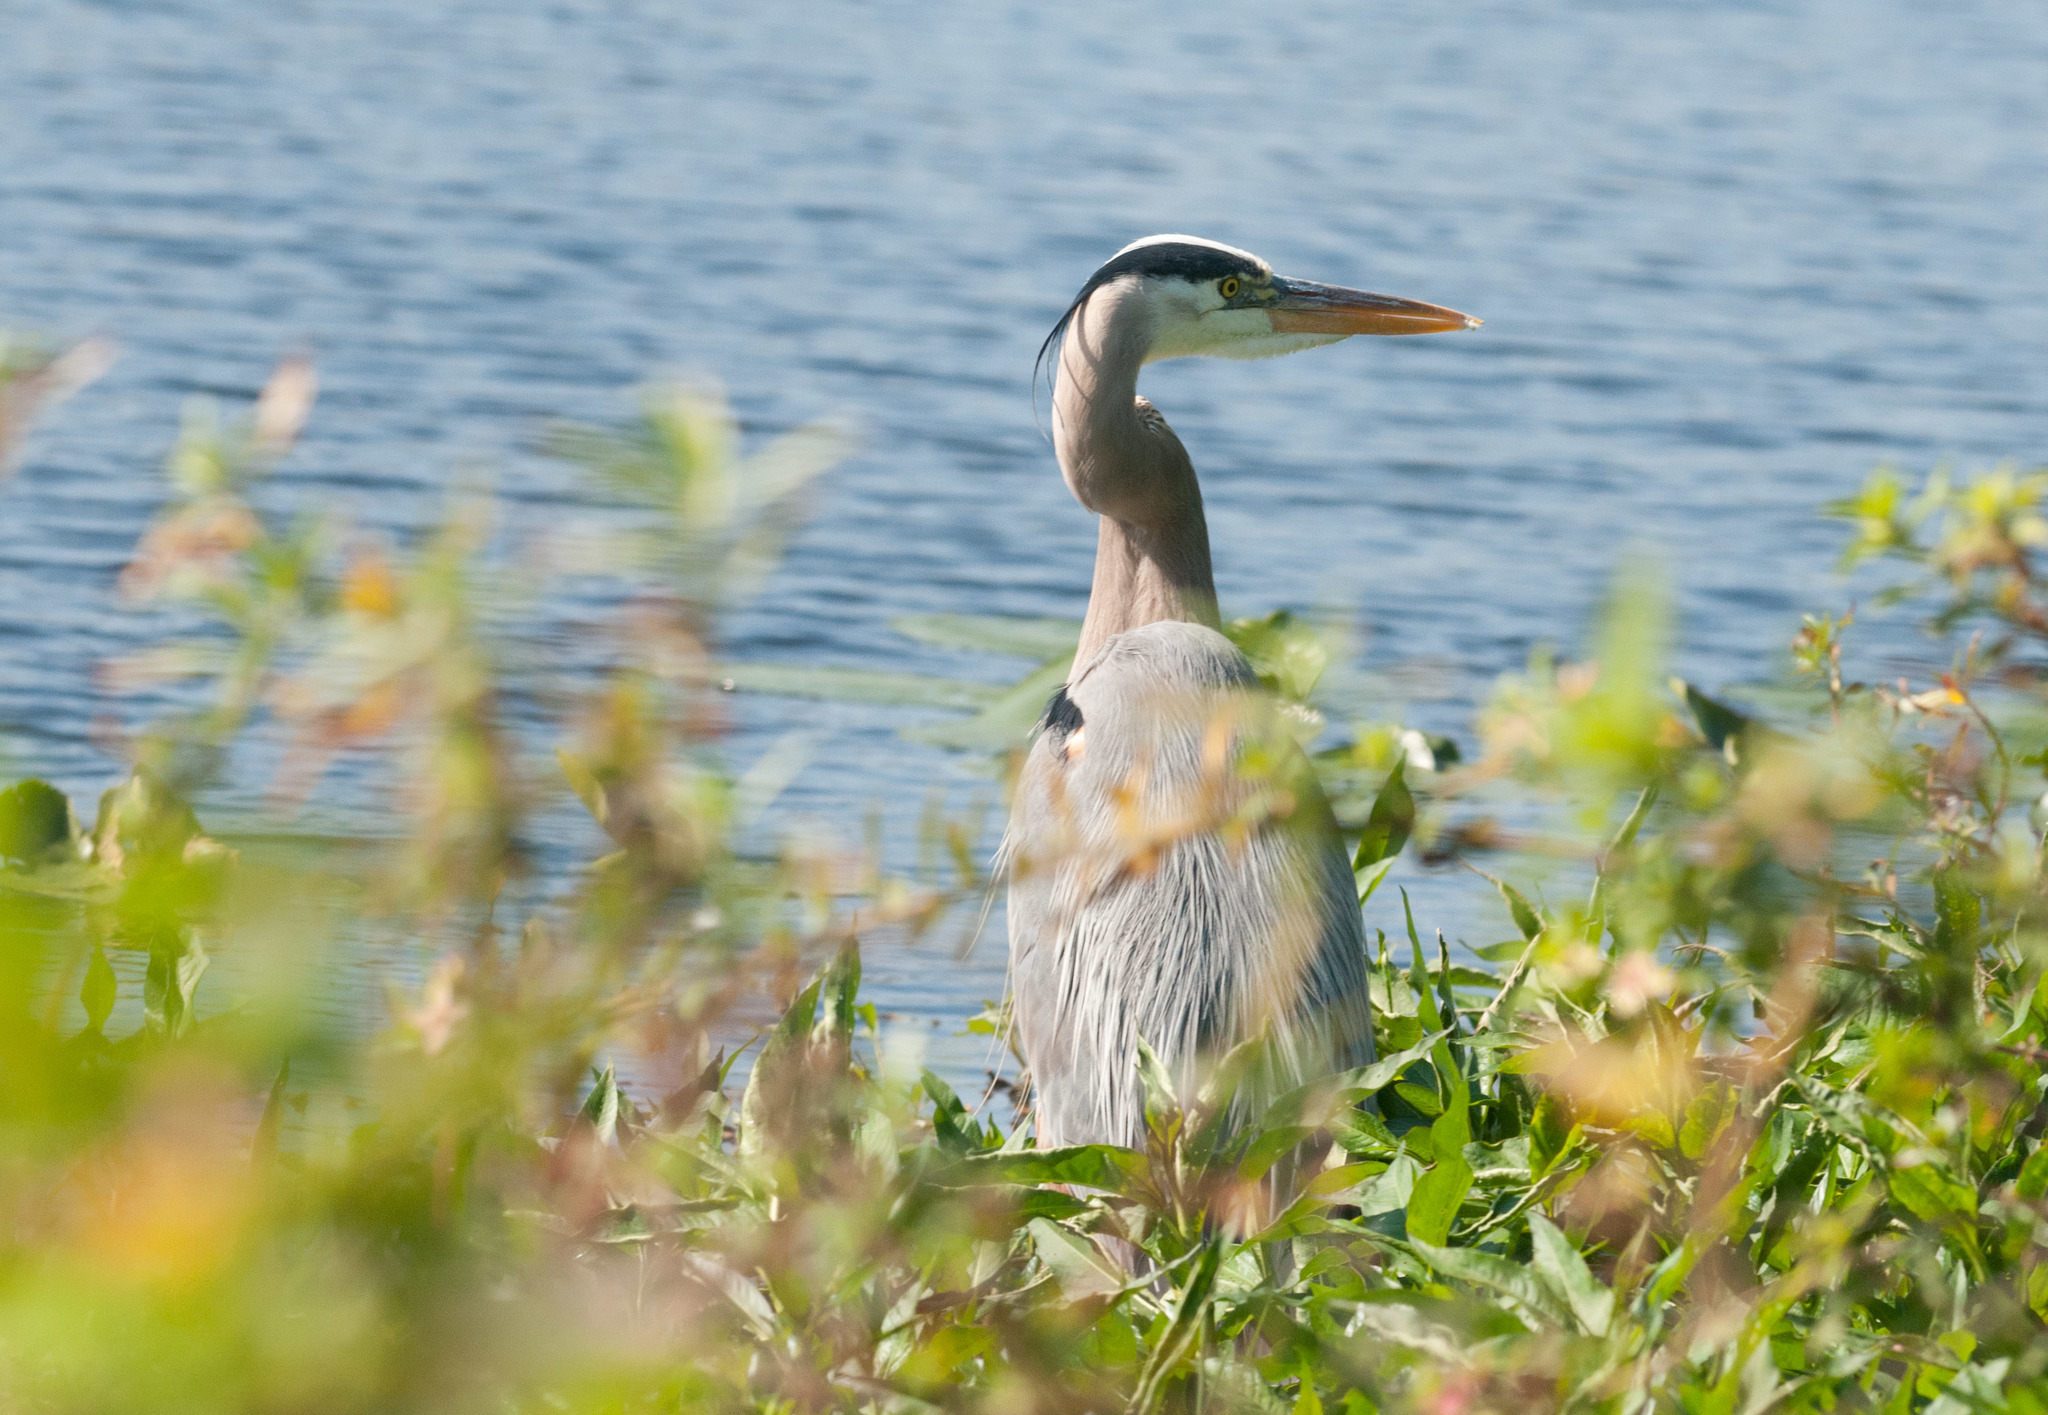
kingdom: Animalia
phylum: Chordata
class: Aves
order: Pelecaniformes
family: Ardeidae
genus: Ardea
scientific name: Ardea herodias
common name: Great blue heron
